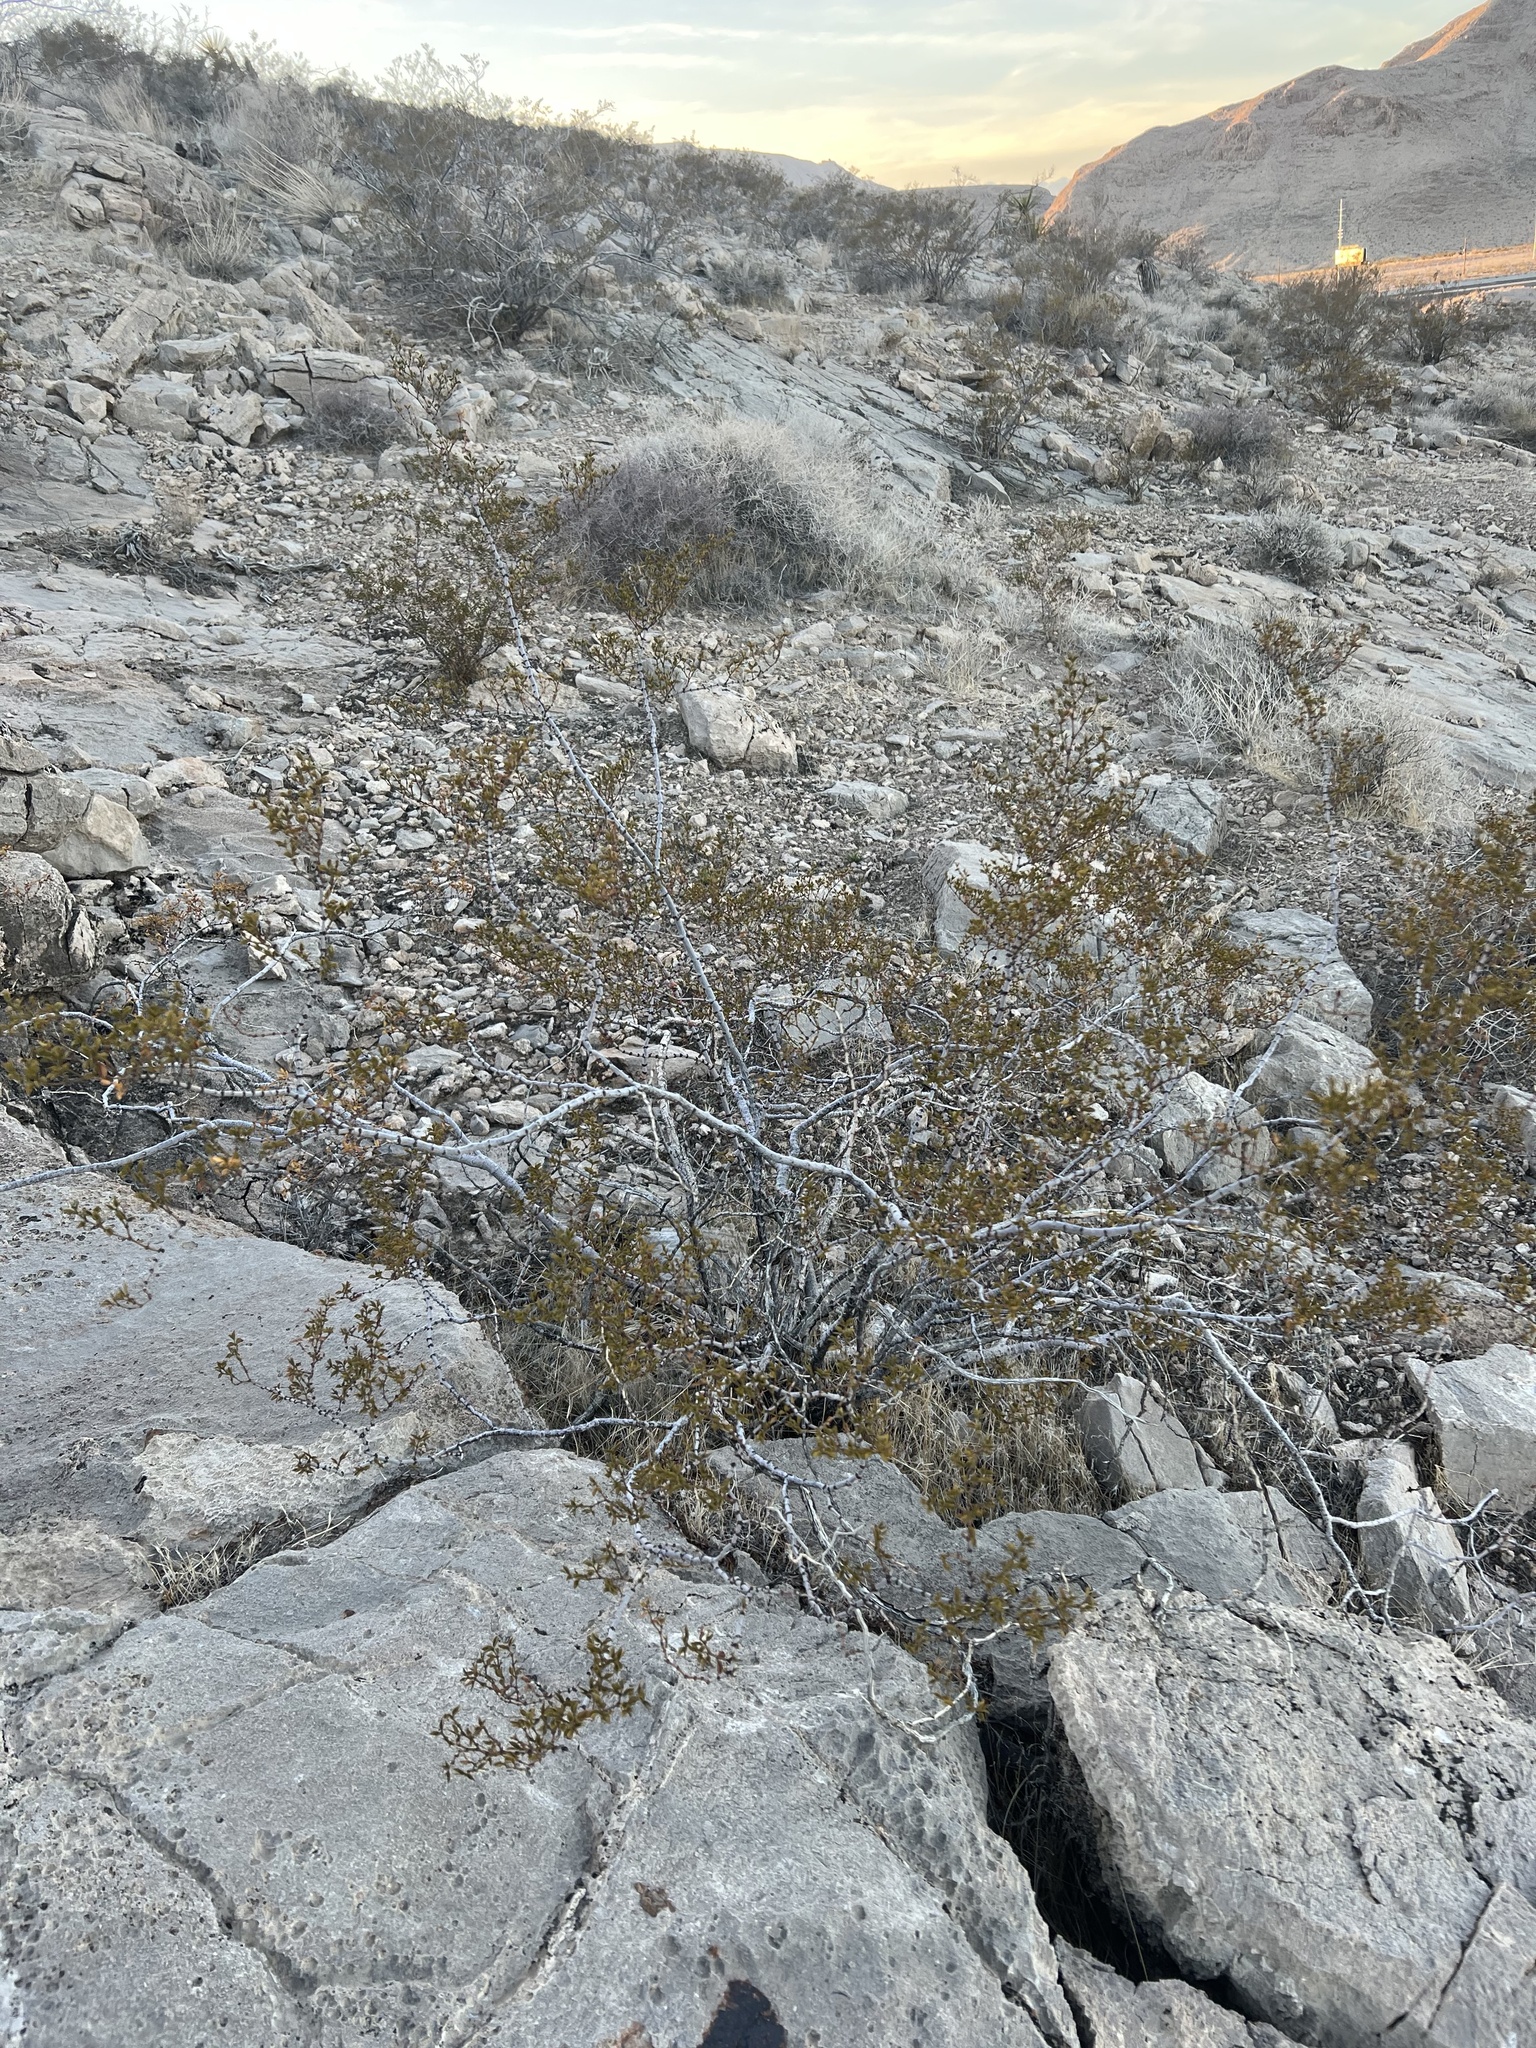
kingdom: Plantae
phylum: Tracheophyta
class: Magnoliopsida
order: Zygophyllales
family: Zygophyllaceae
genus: Larrea
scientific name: Larrea tridentata
